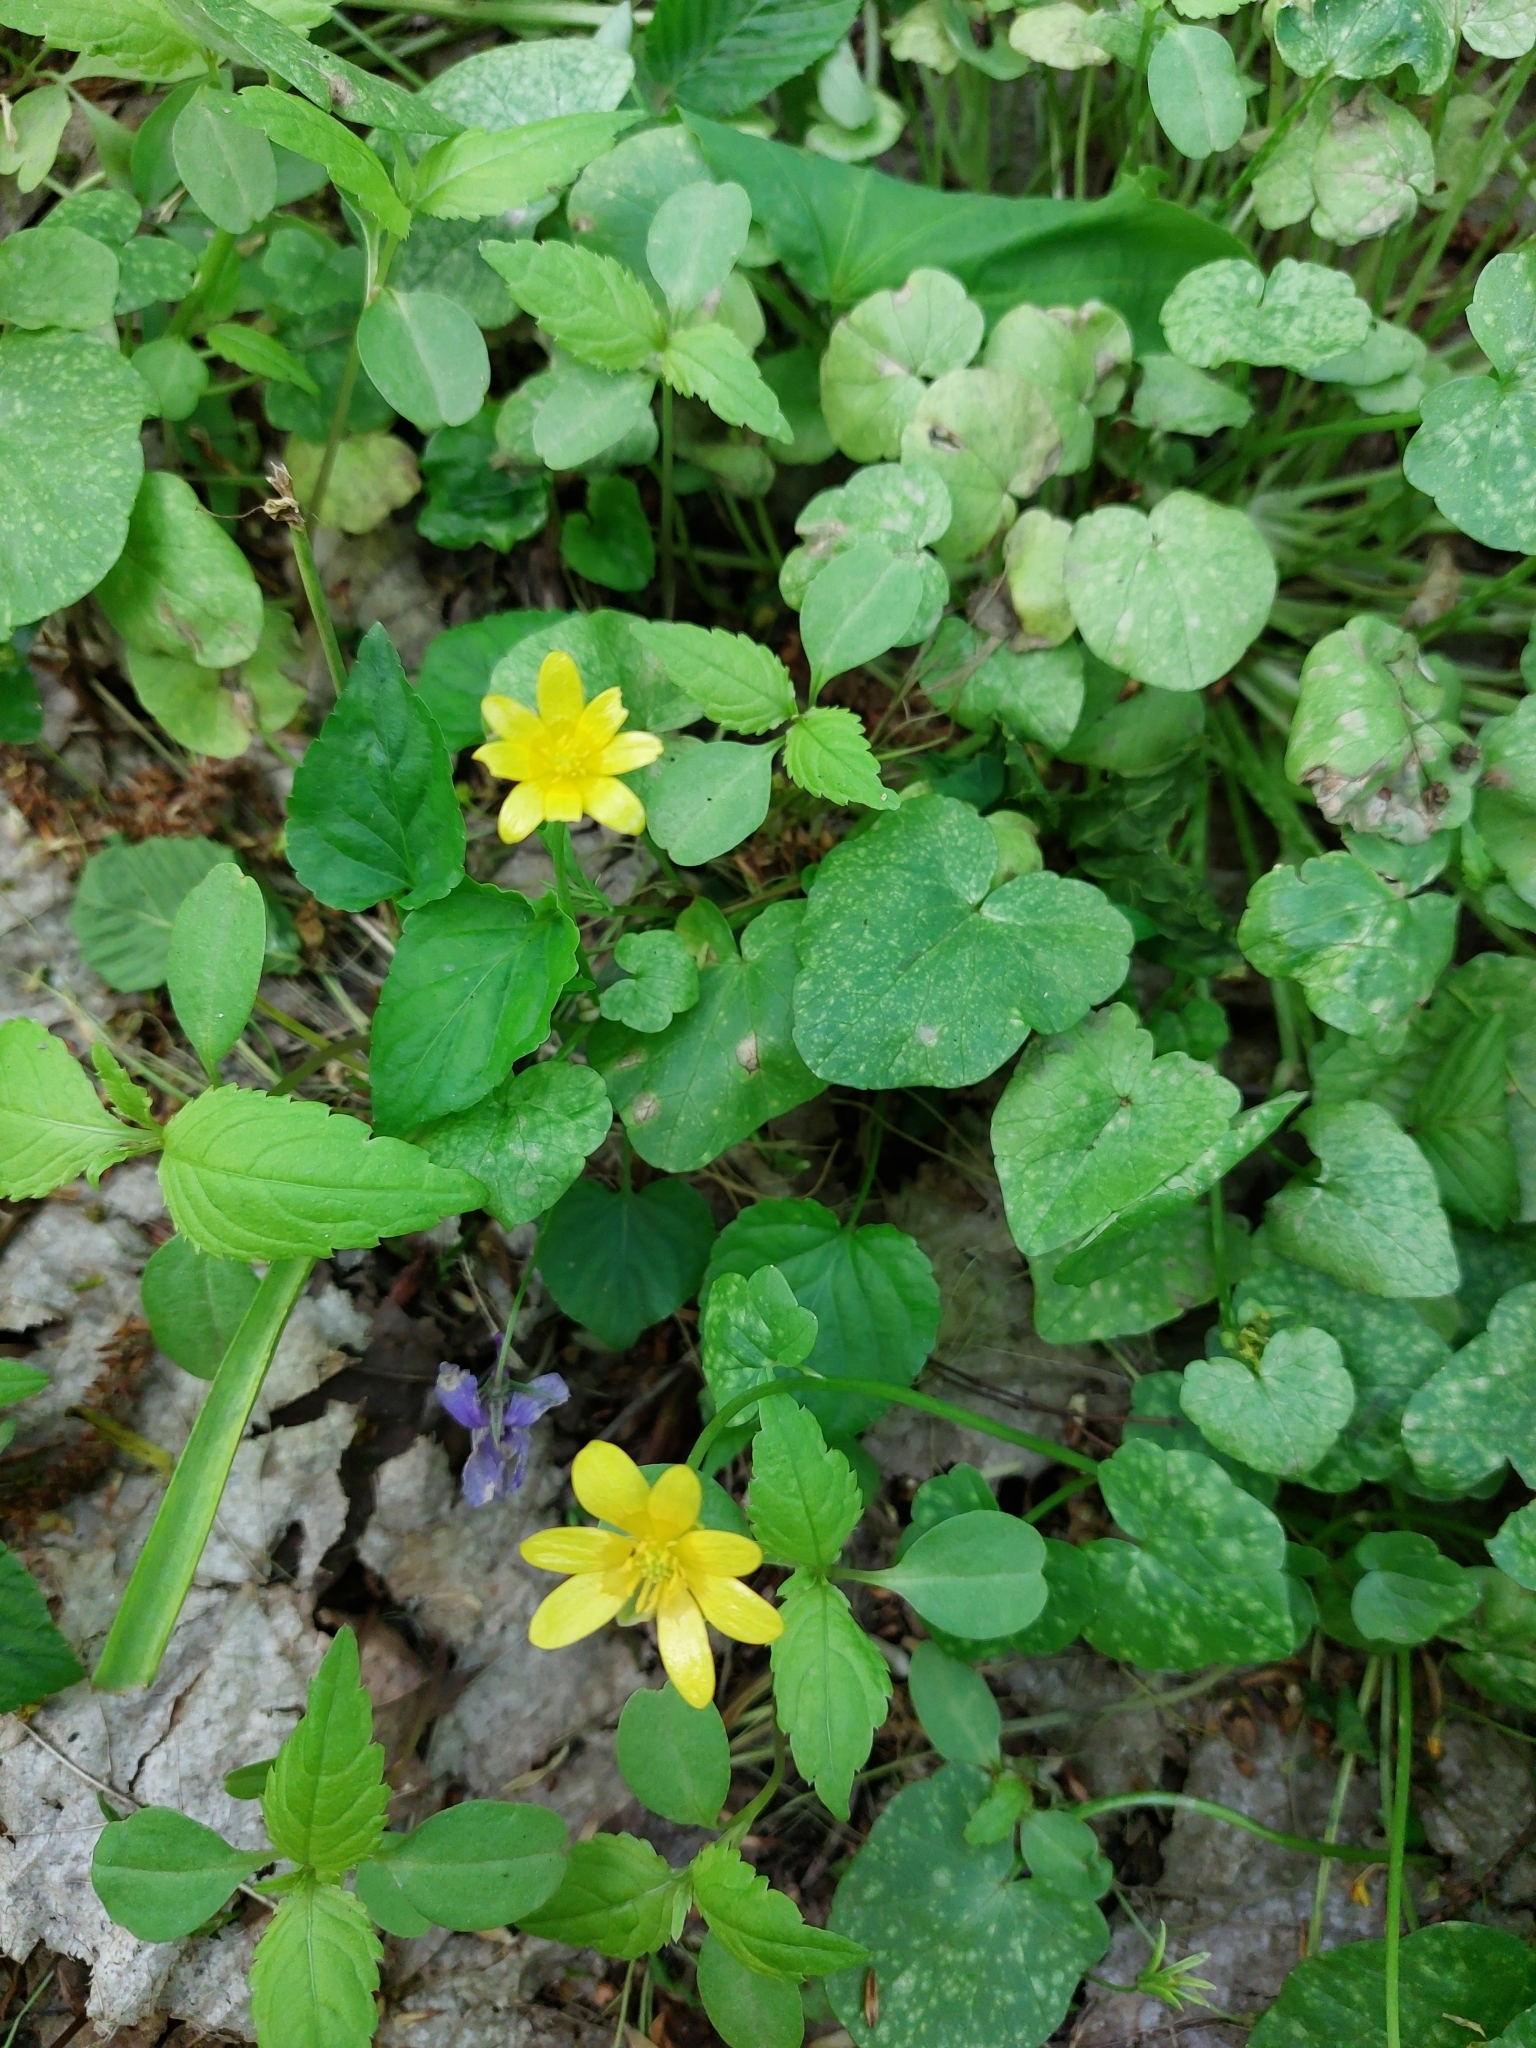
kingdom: Plantae
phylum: Tracheophyta
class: Magnoliopsida
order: Ranunculales
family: Ranunculaceae
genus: Ficaria
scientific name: Ficaria verna
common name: Lesser celandine
